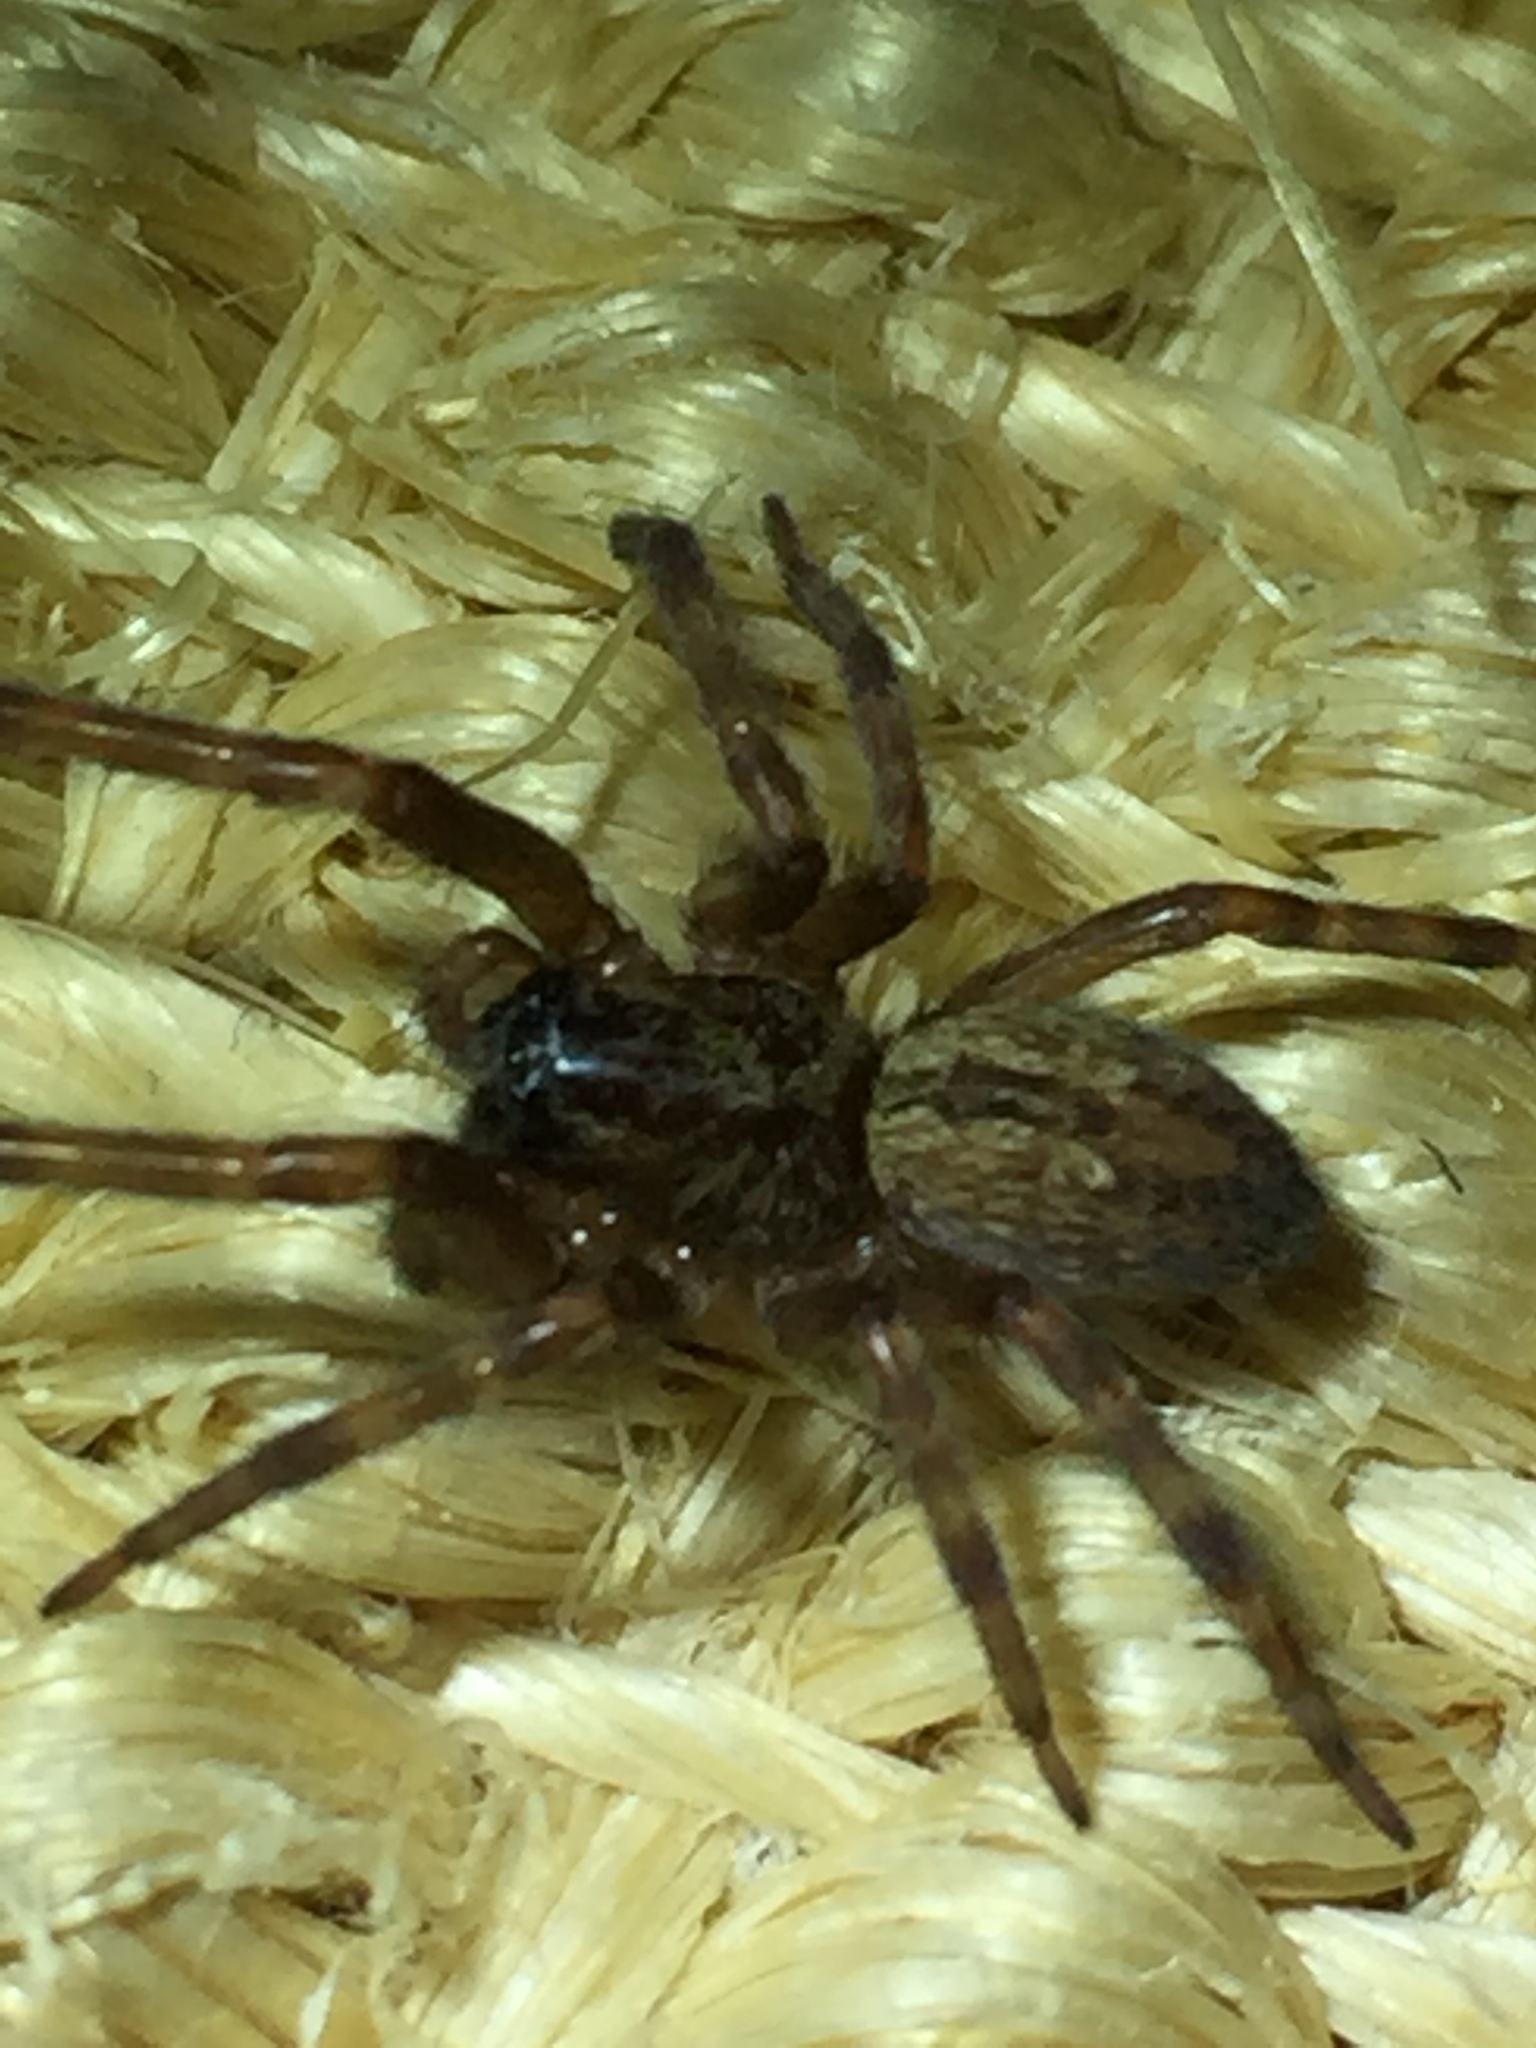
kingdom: Animalia
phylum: Arthropoda
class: Arachnida
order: Araneae
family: Desidae
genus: Badumna
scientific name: Badumna longinqua
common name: Gray house spider
